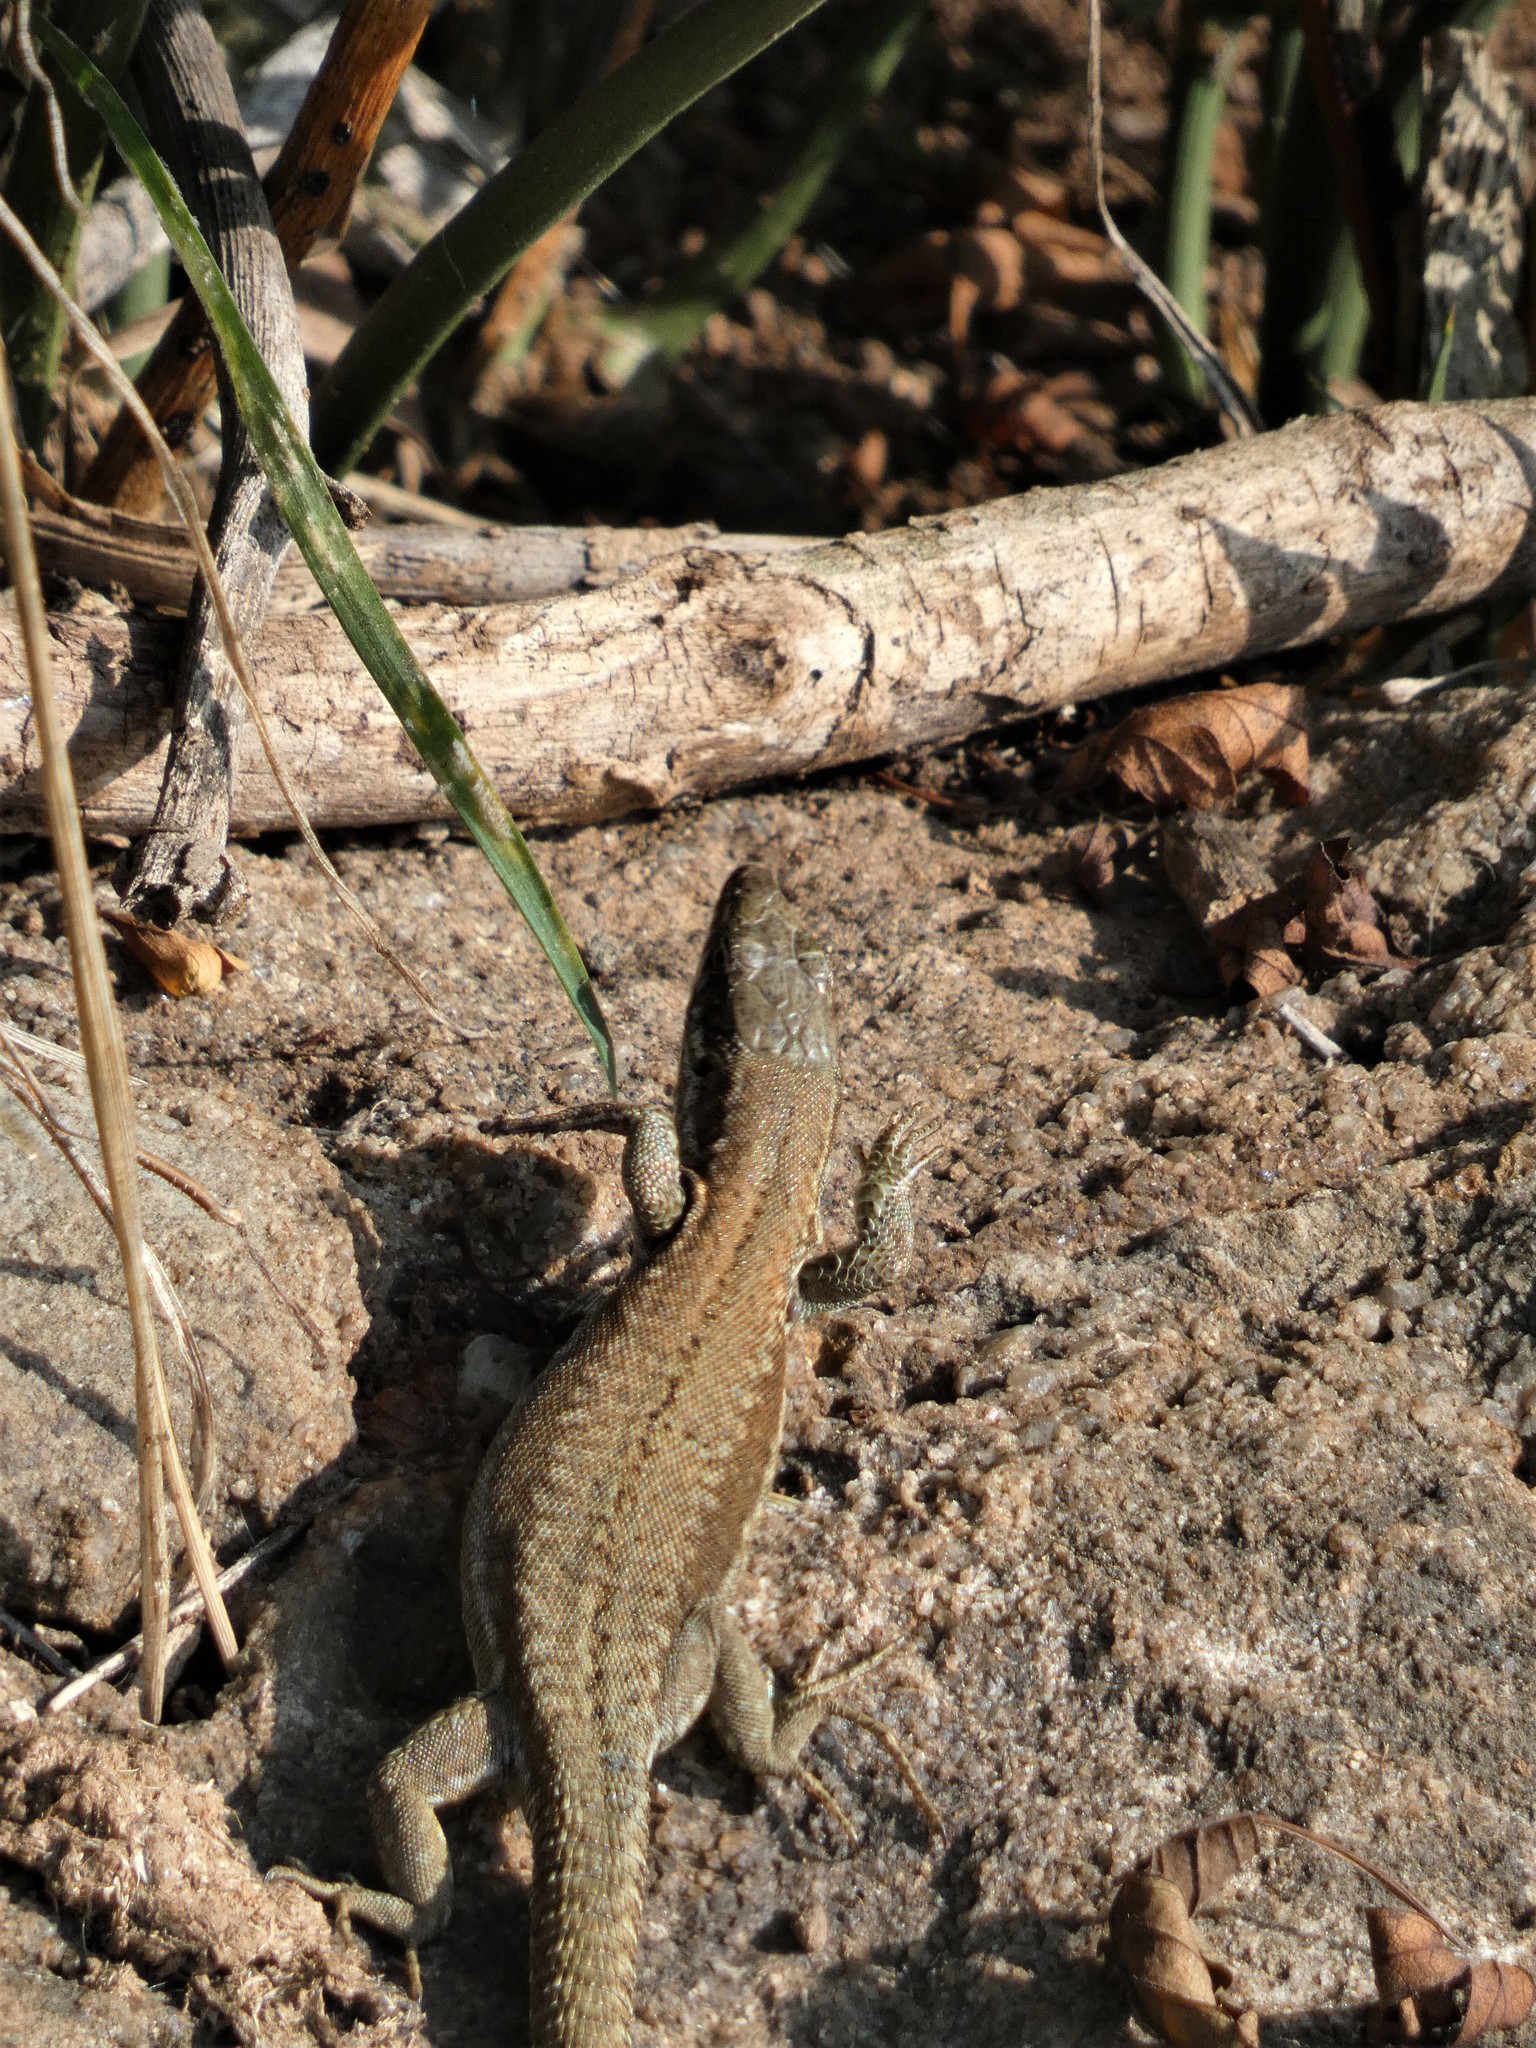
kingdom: Animalia
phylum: Chordata
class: Squamata
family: Lacertidae
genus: Podarcis
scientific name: Podarcis muralis
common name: Common wall lizard
